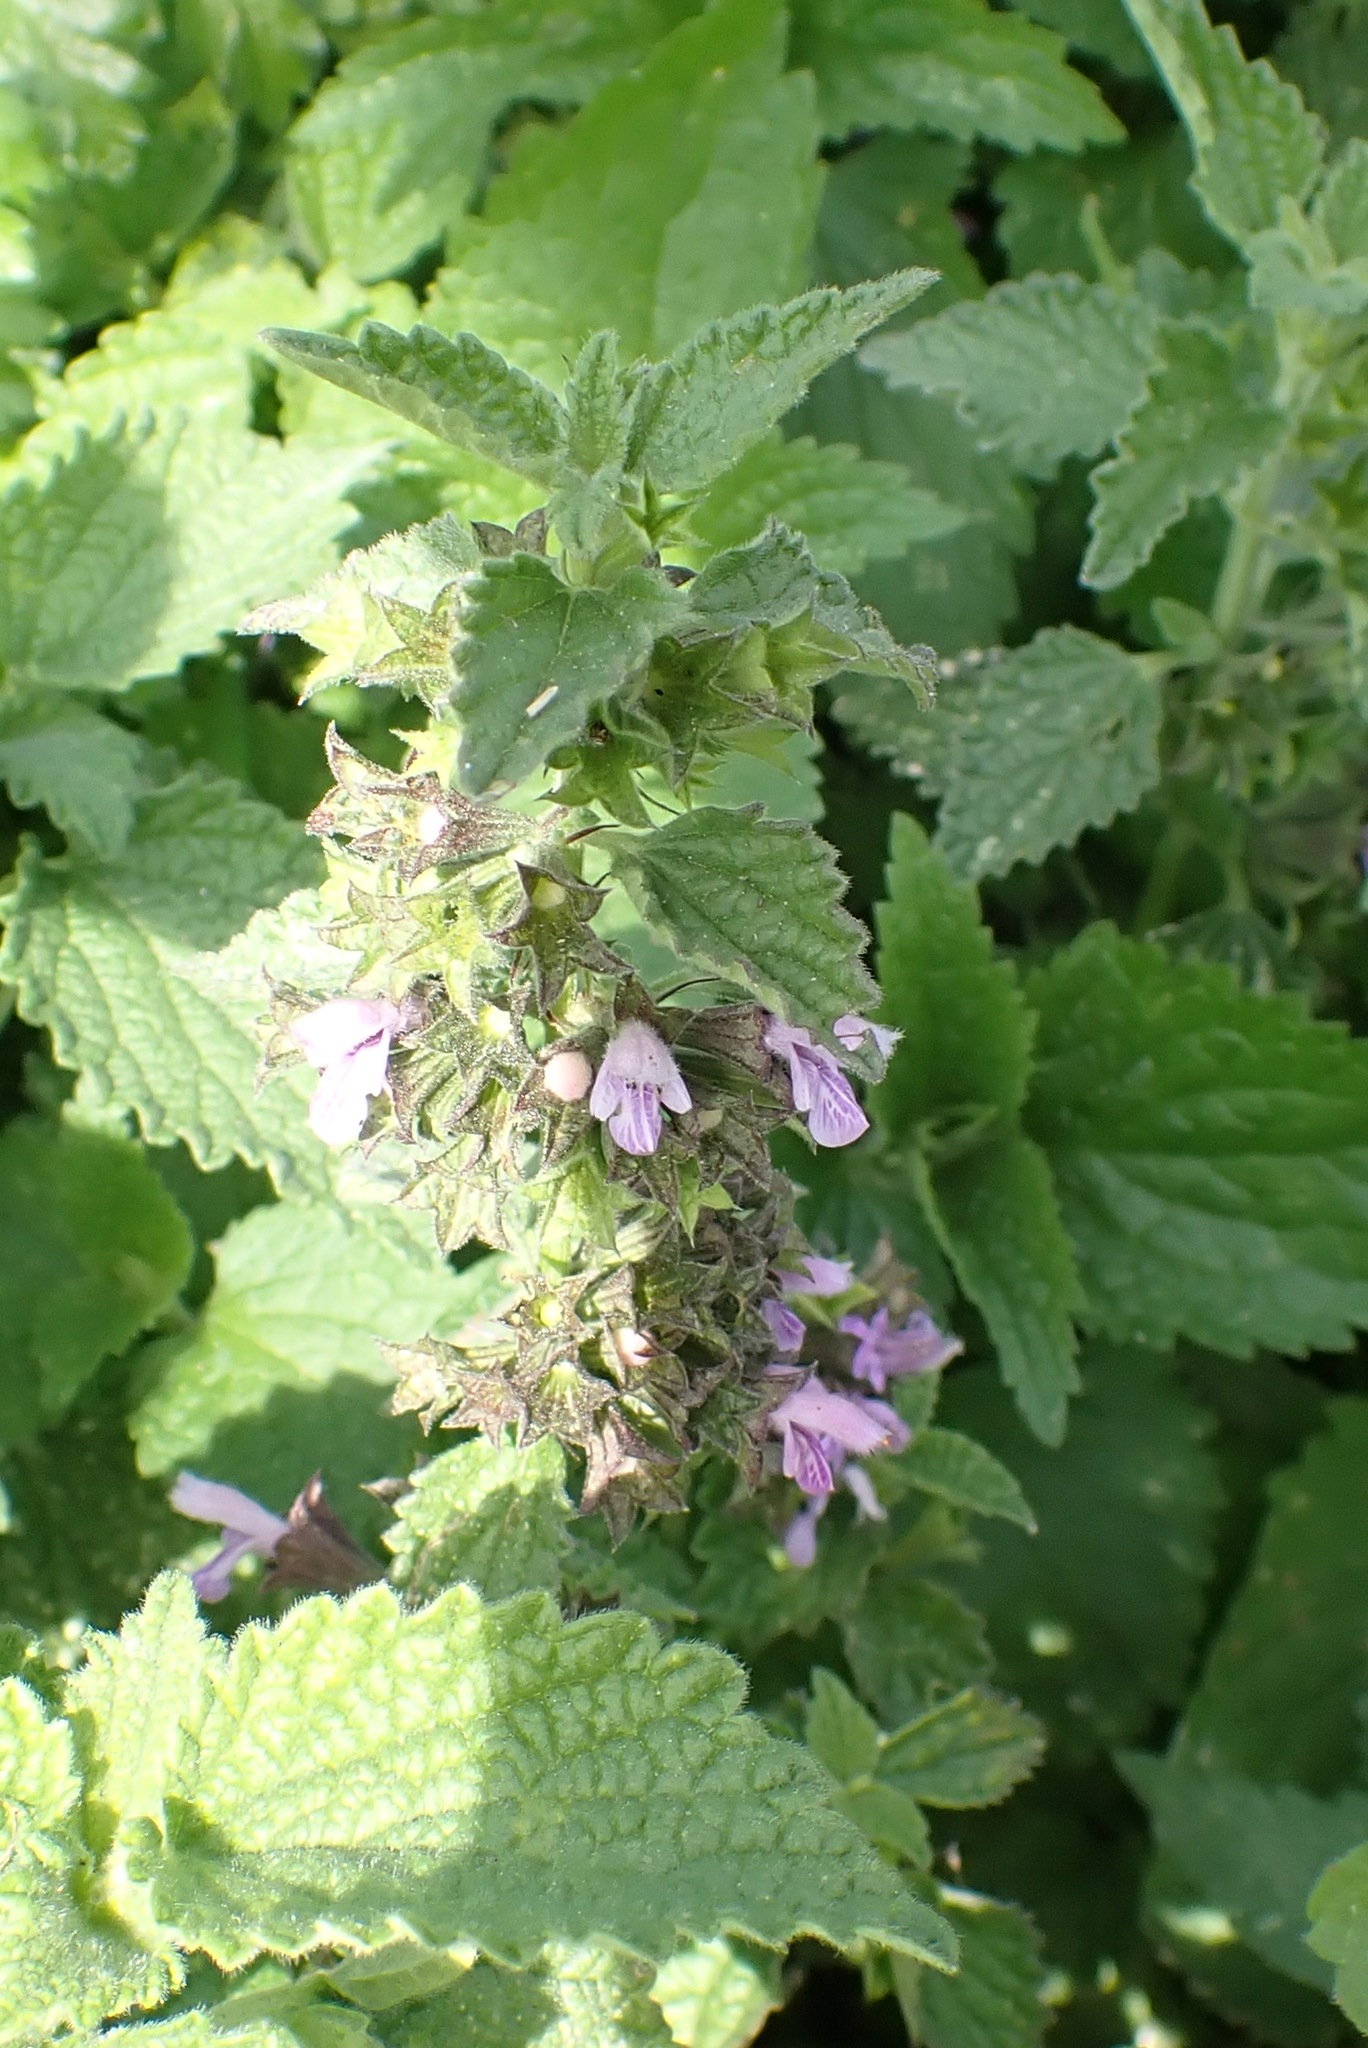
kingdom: Plantae
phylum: Tracheophyta
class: Magnoliopsida
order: Lamiales
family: Lamiaceae
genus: Ballota
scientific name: Ballota nigra
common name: Black horehound
